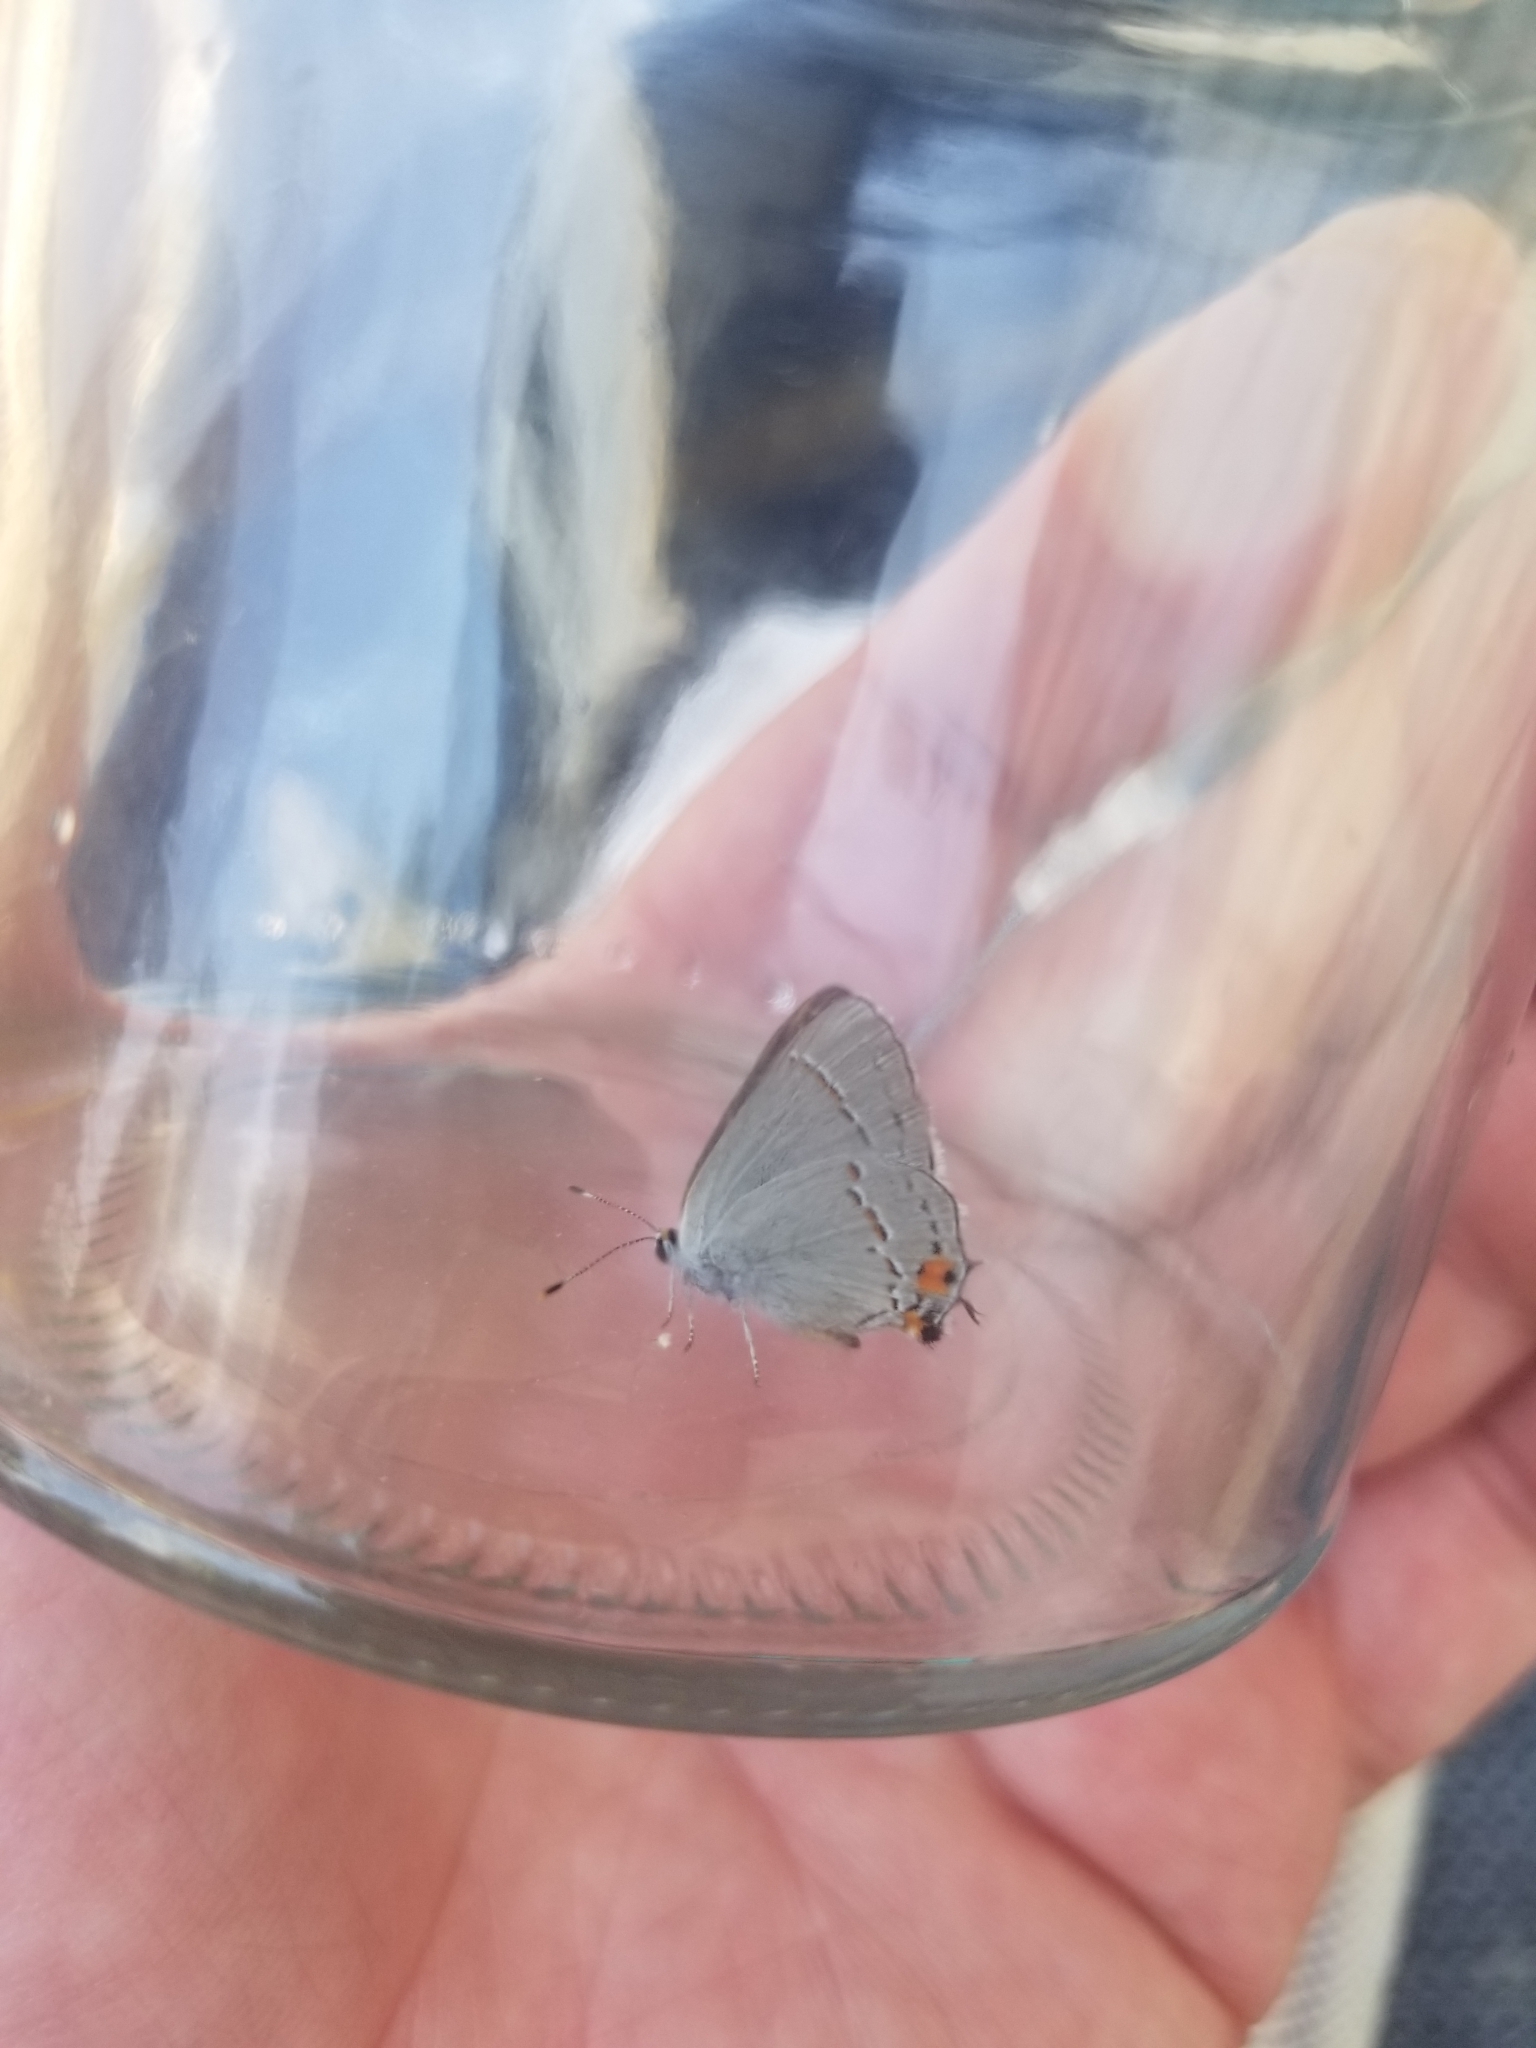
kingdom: Animalia
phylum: Arthropoda
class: Insecta
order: Lepidoptera
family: Lycaenidae
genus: Strymon
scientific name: Strymon melinus
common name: Gray hairstreak
